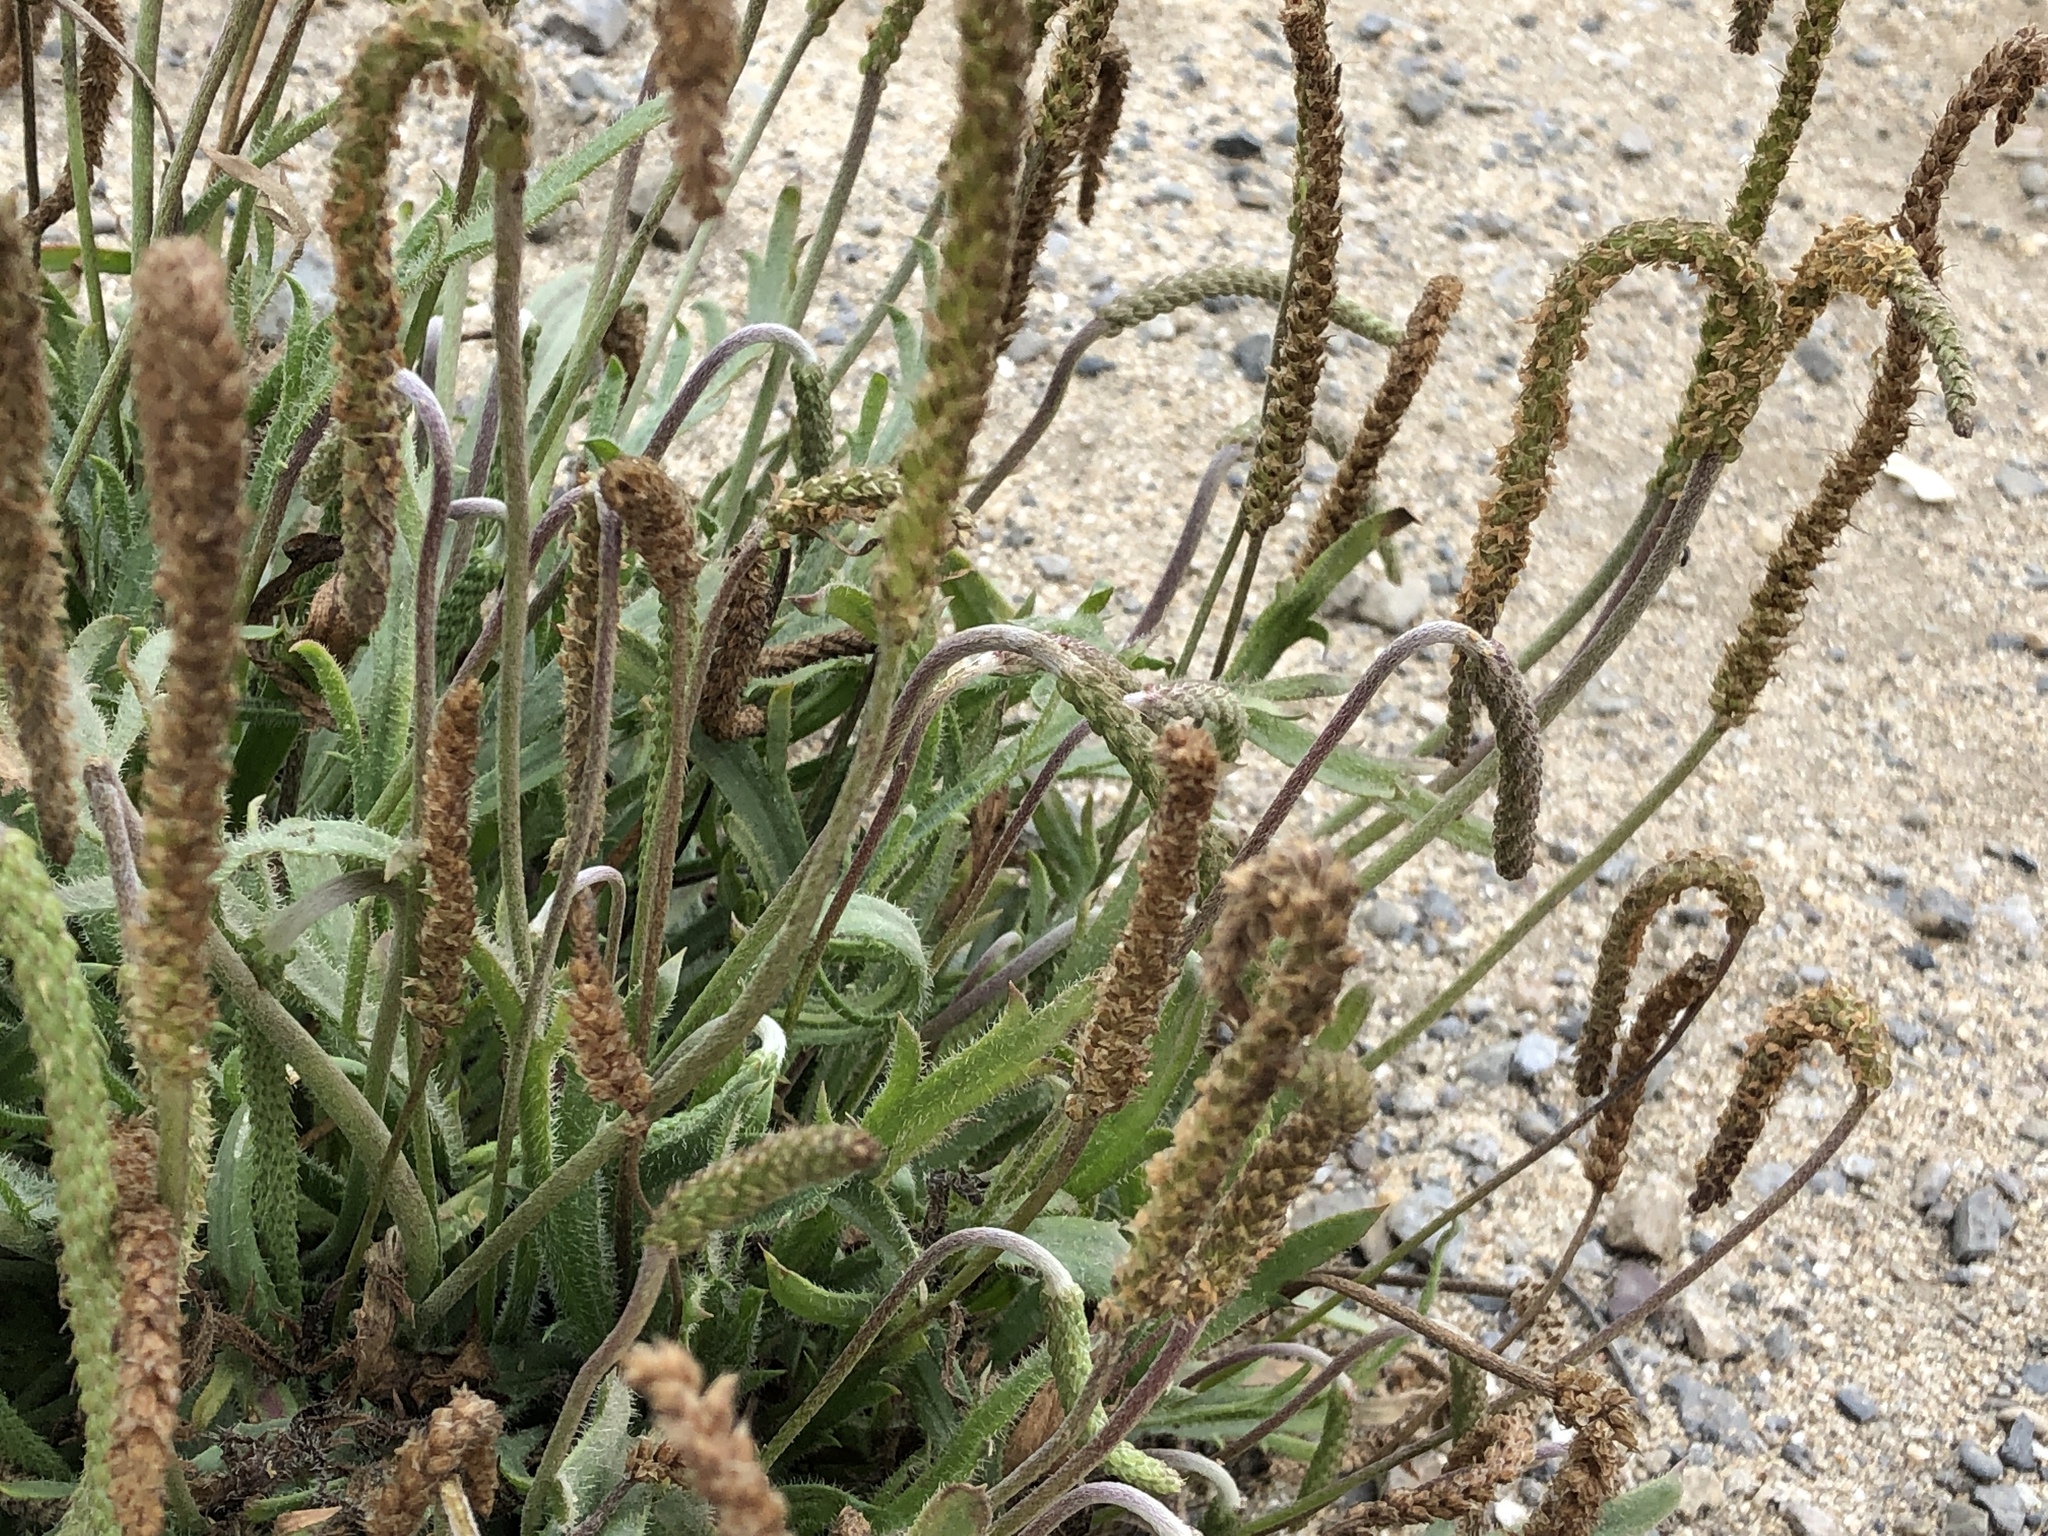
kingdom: Plantae
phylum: Tracheophyta
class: Magnoliopsida
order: Lamiales
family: Plantaginaceae
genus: Plantago
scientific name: Plantago coronopus
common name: Buck's-horn plantain
